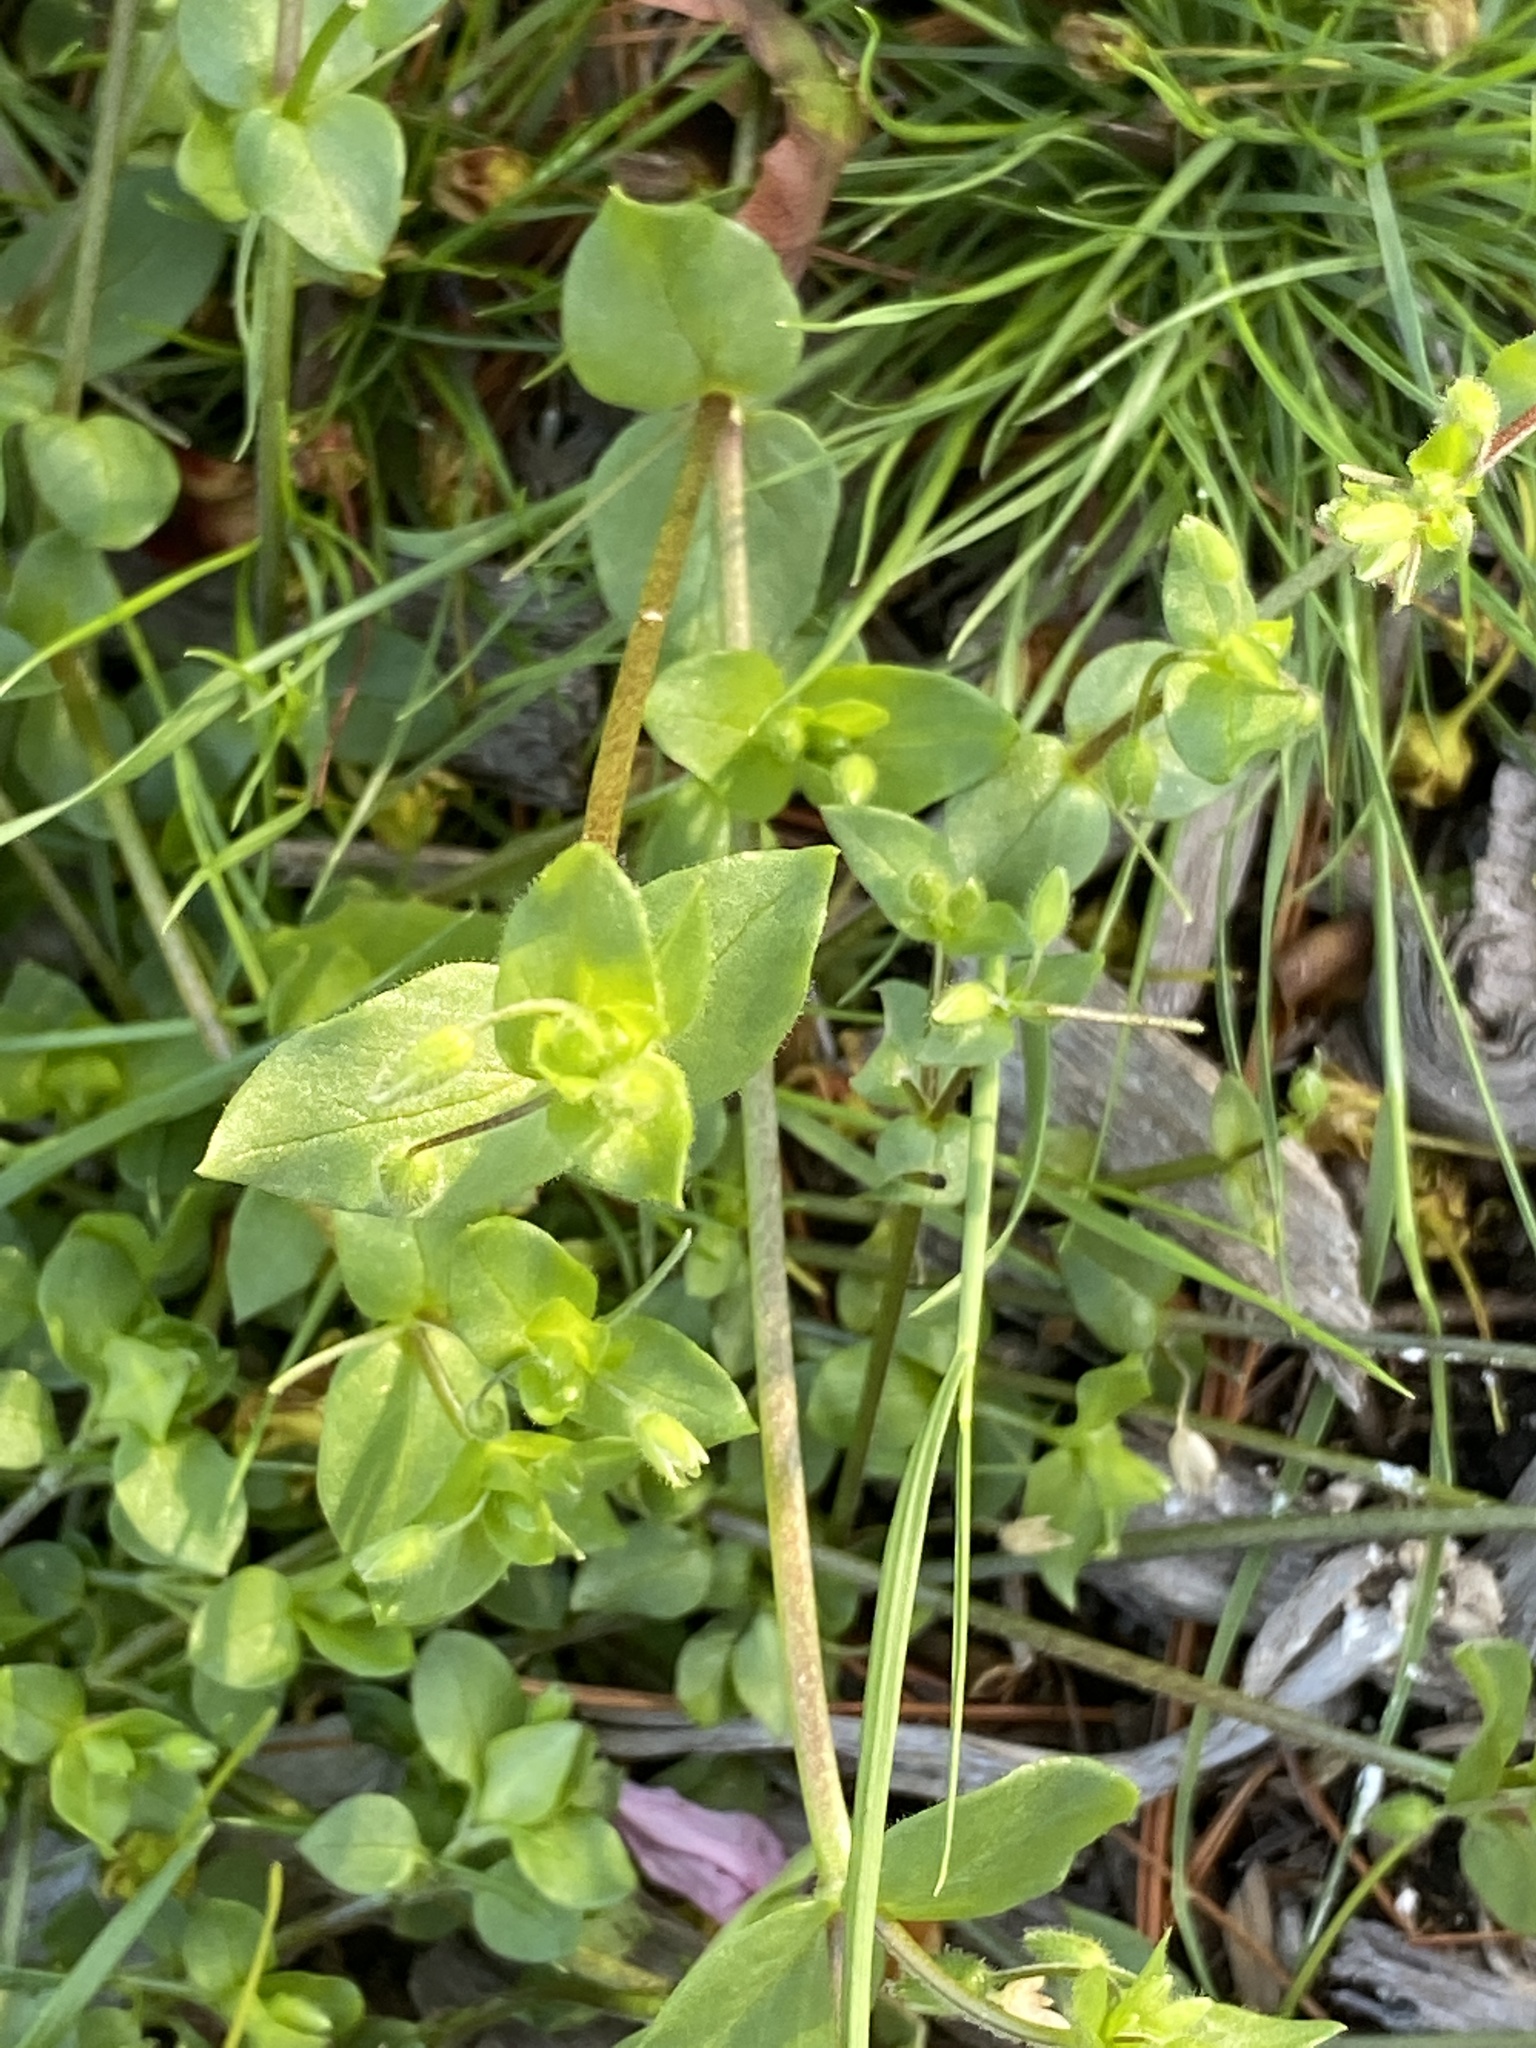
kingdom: Plantae
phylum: Tracheophyta
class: Magnoliopsida
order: Caryophyllales
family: Caryophyllaceae
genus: Stellaria
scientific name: Stellaria media
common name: Common chickweed
